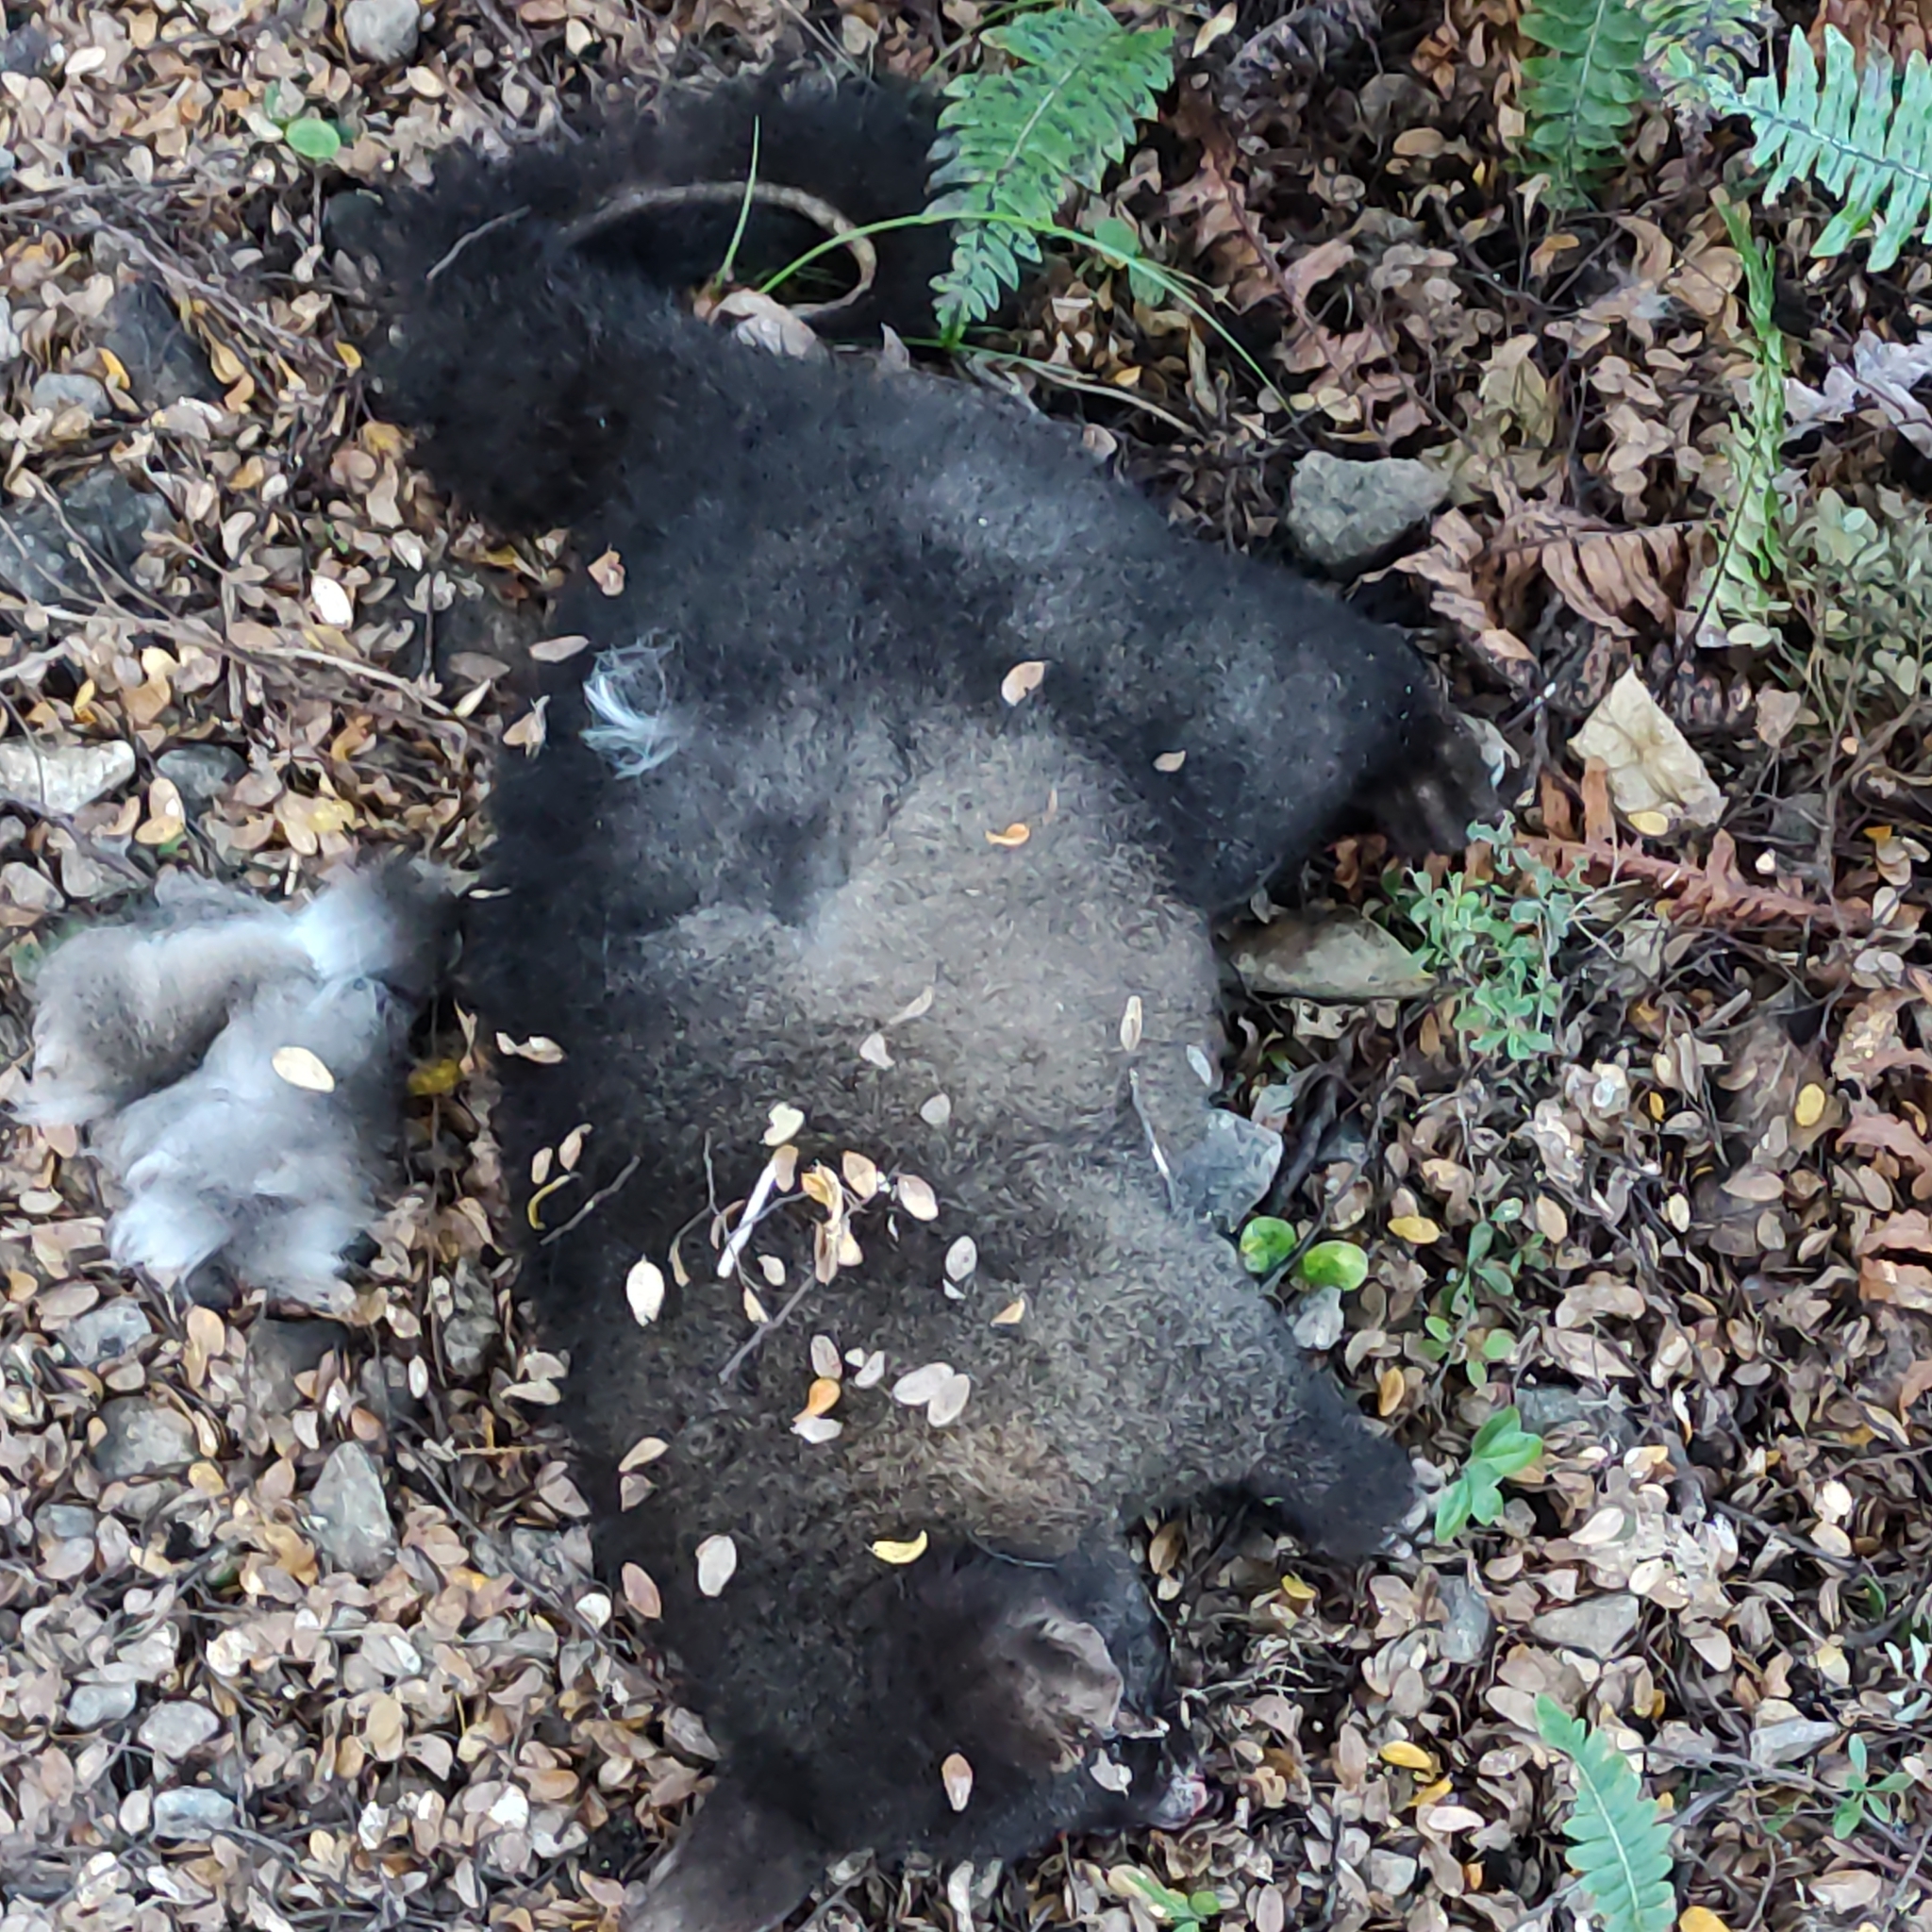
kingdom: Animalia
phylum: Chordata
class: Mammalia
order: Diprotodontia
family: Phalangeridae
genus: Trichosurus
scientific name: Trichosurus vulpecula
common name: Common brushtail
